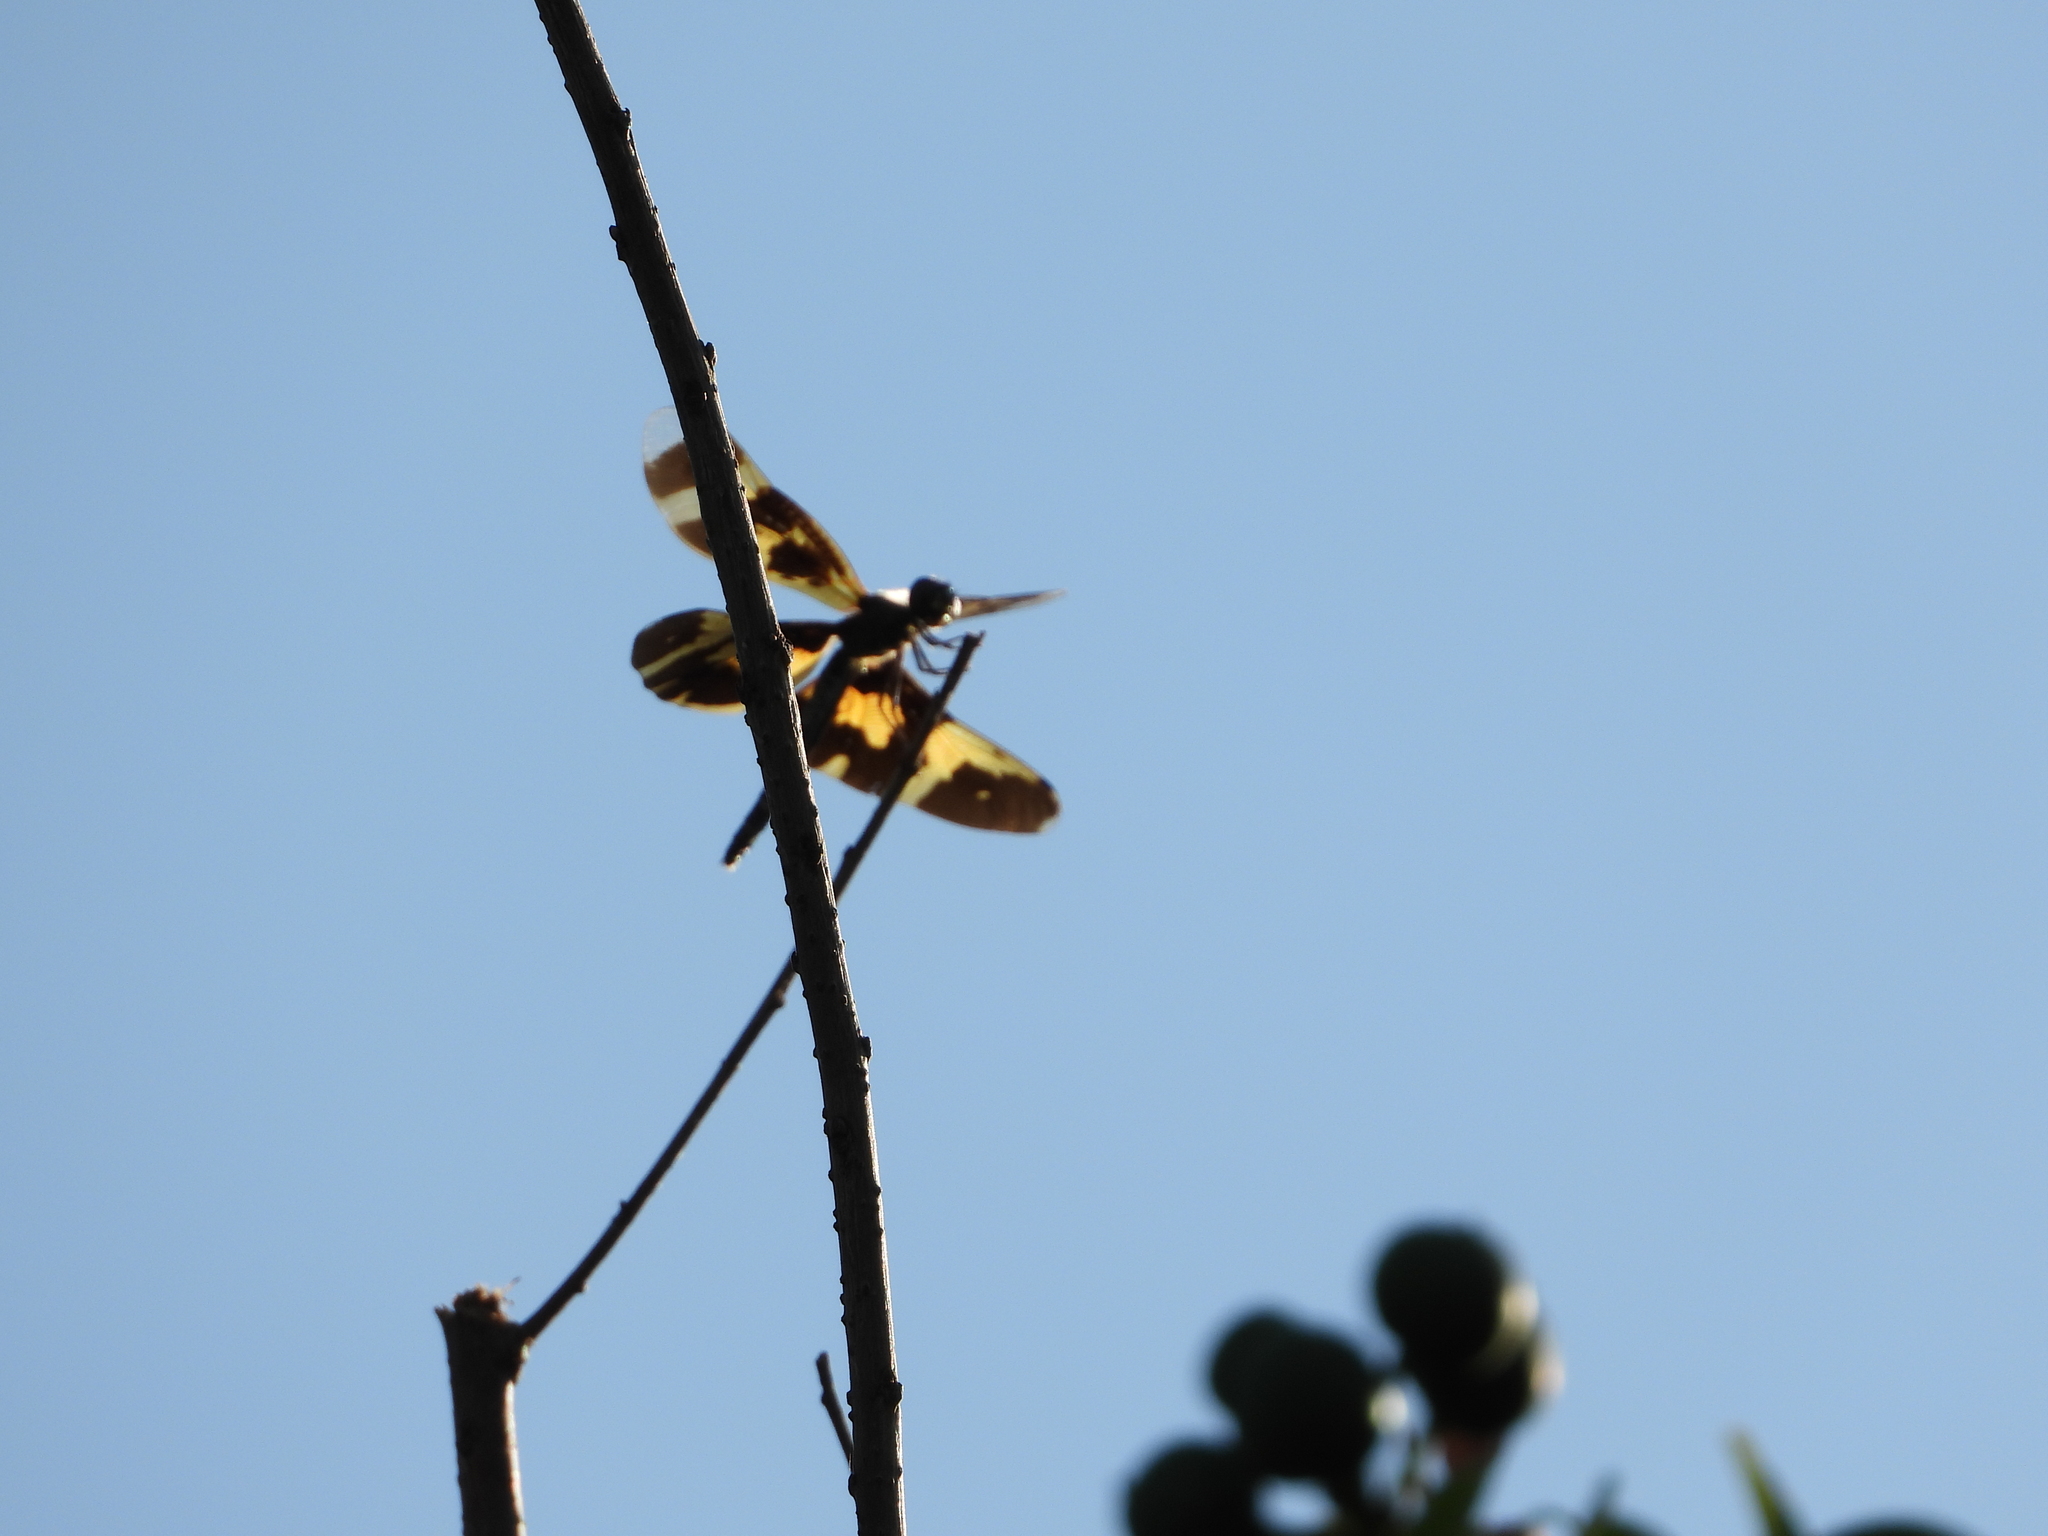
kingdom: Animalia
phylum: Arthropoda
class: Insecta
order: Odonata
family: Libellulidae
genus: Rhyothemis
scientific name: Rhyothemis variegata
